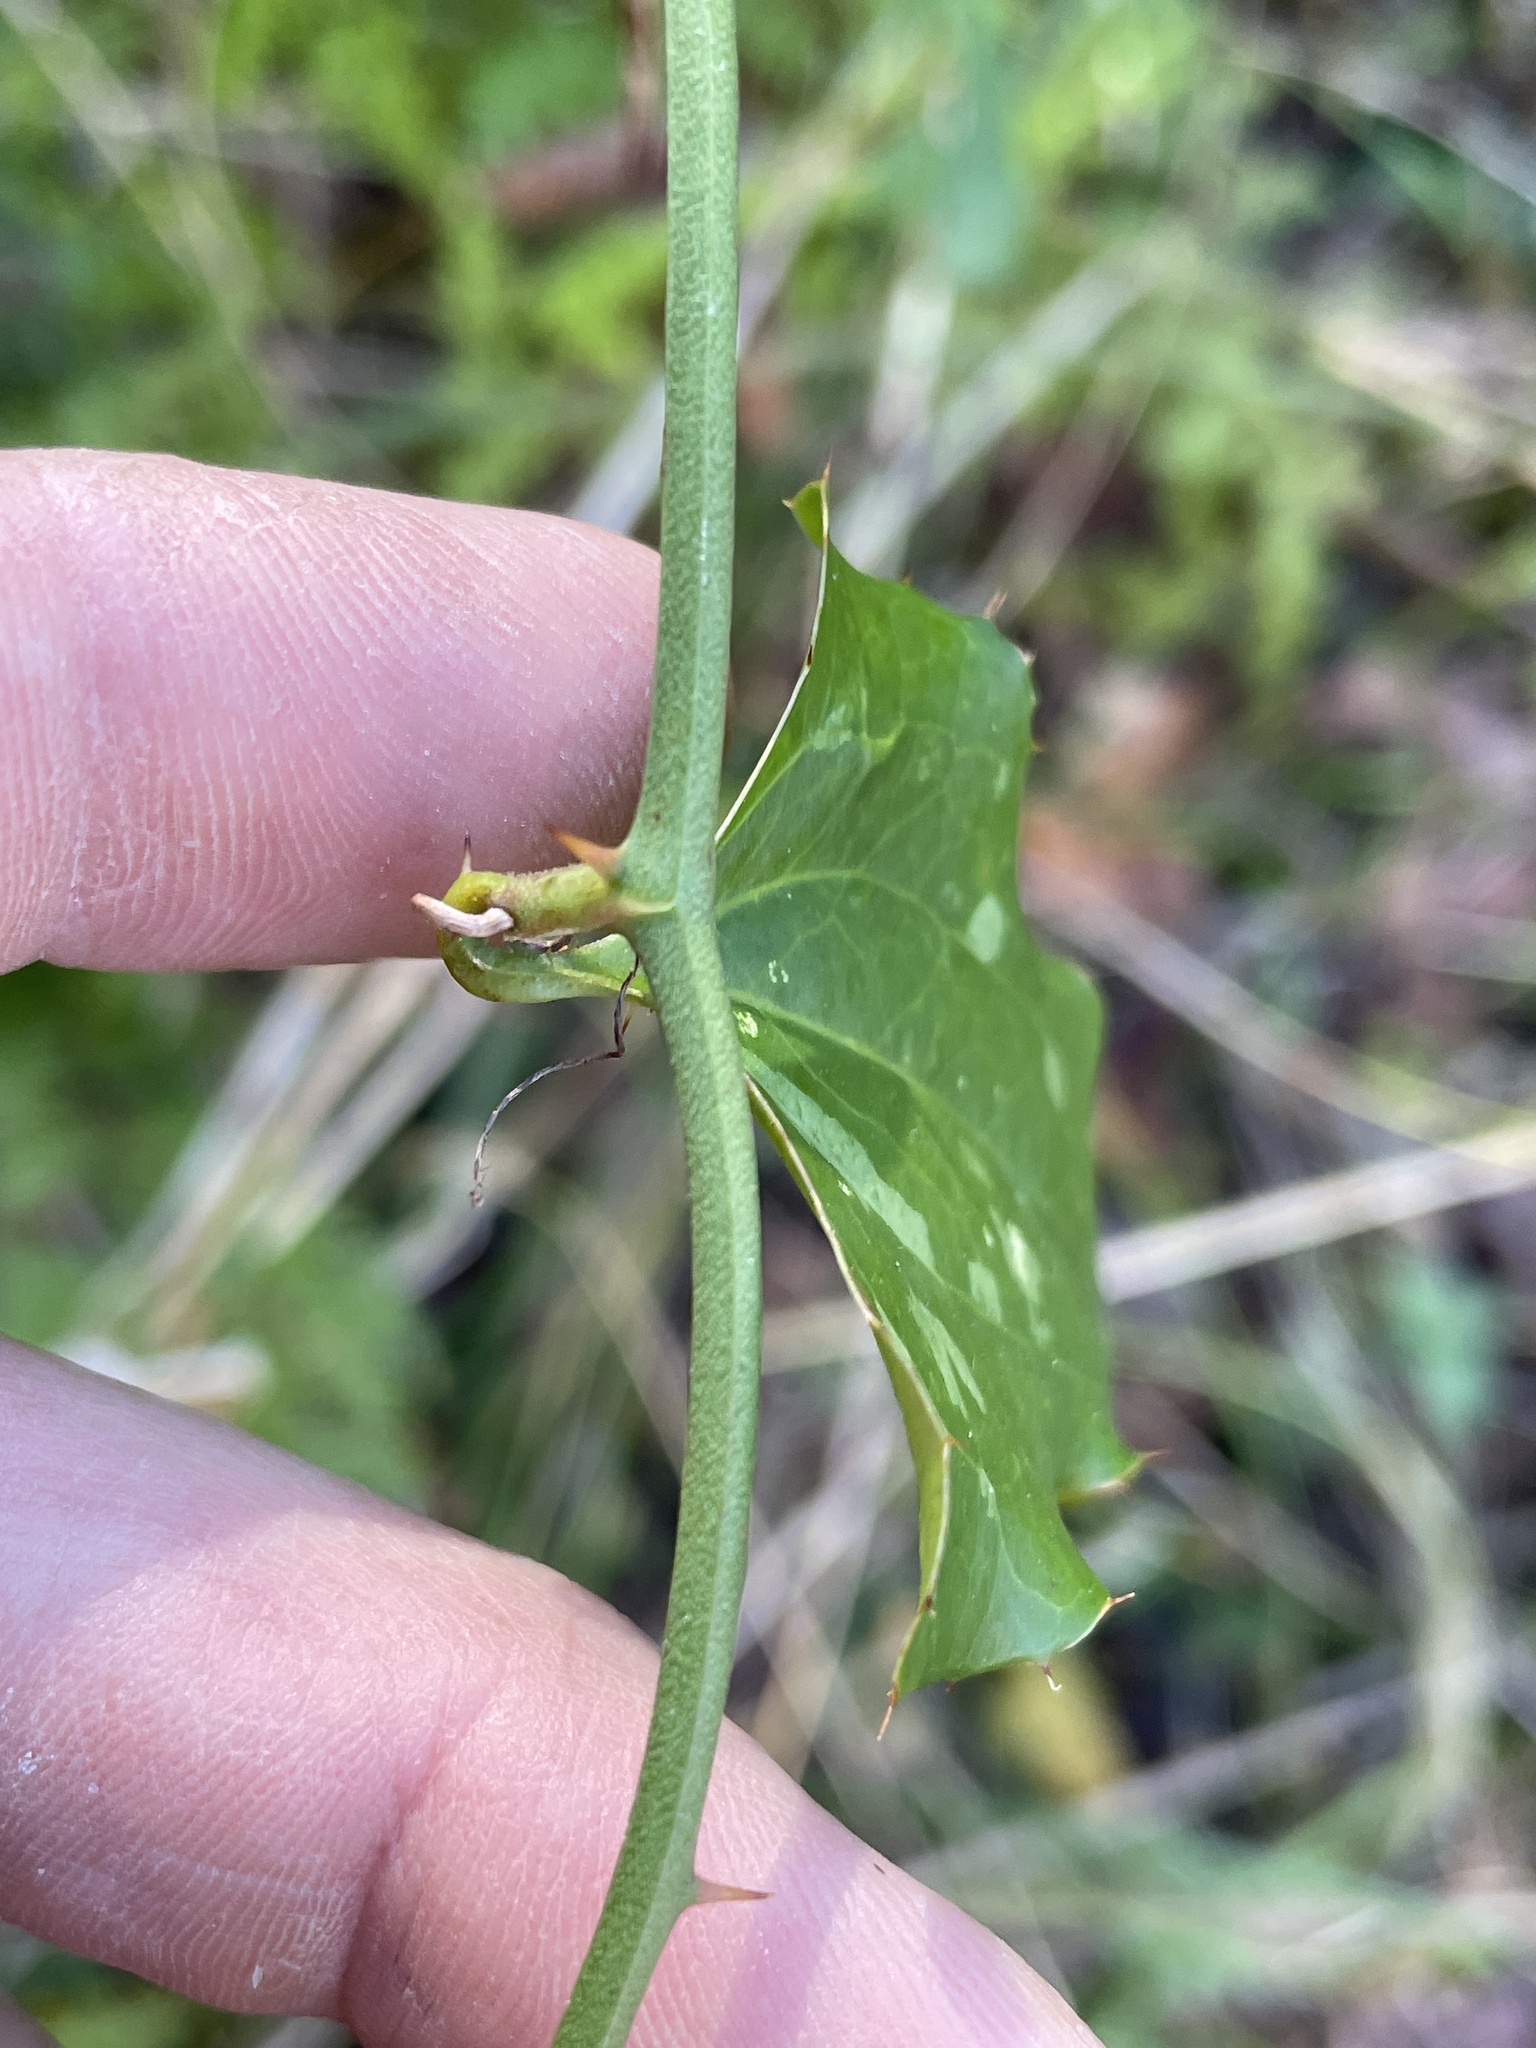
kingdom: Plantae
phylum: Tracheophyta
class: Liliopsida
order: Liliales
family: Smilacaceae
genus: Smilax
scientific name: Smilax bona-nox
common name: Catbrier
